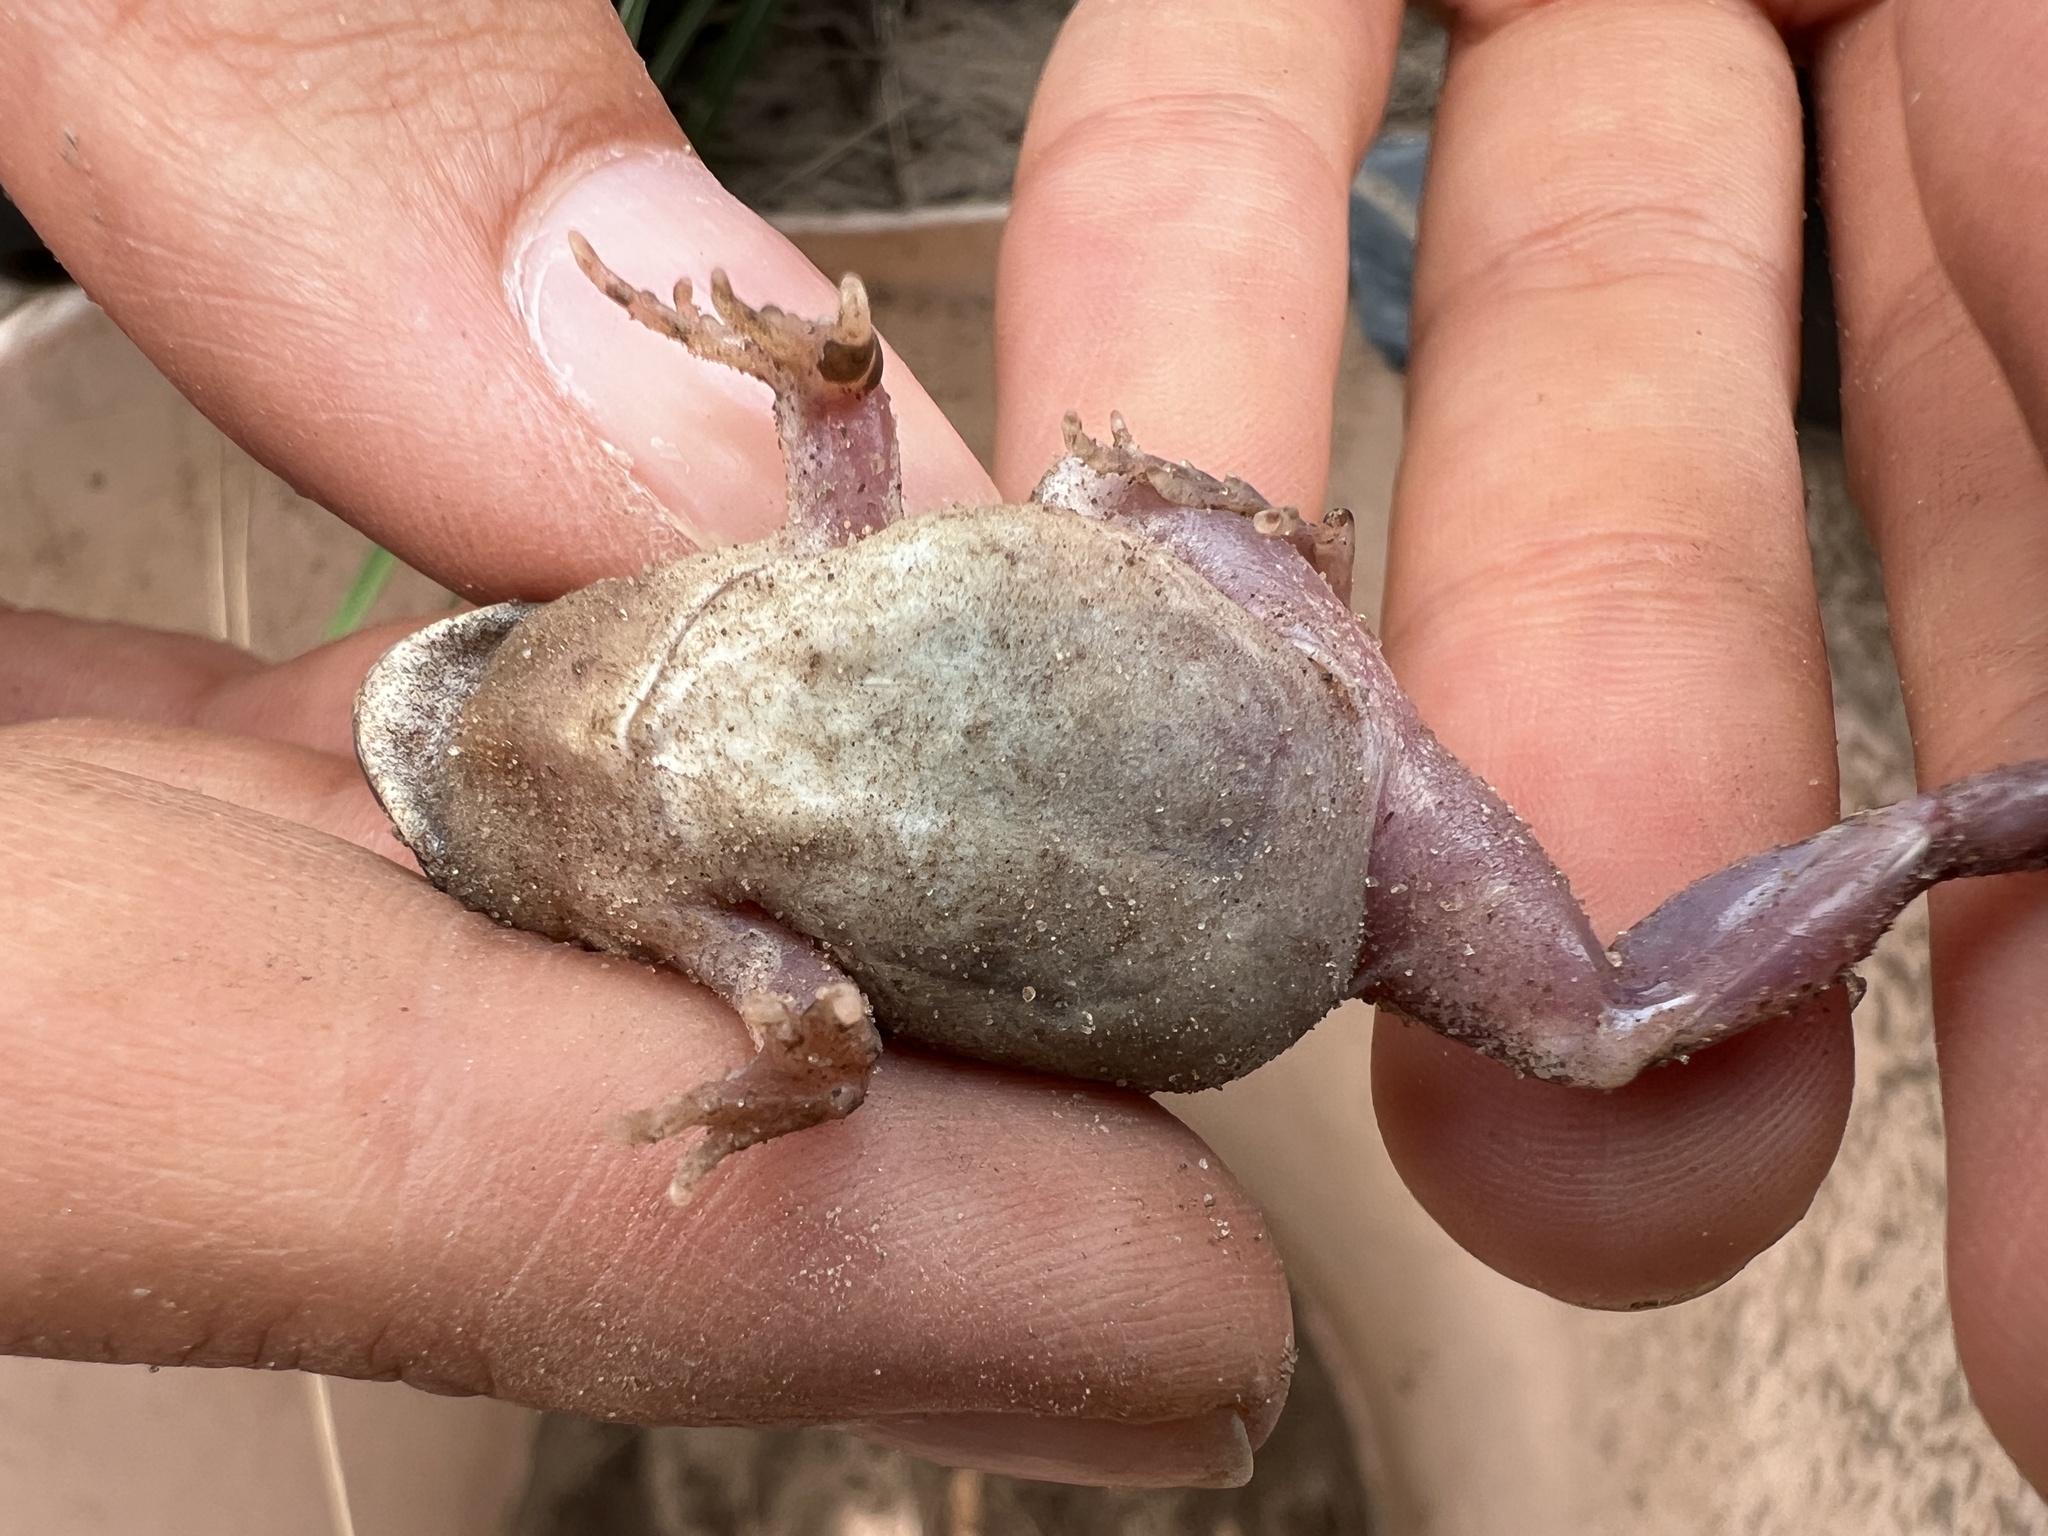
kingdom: Animalia
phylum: Chordata
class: Amphibia
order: Anura
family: Leptodactylidae
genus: Physalaemus
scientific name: Physalaemus biligonigerus
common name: Weeping frog
